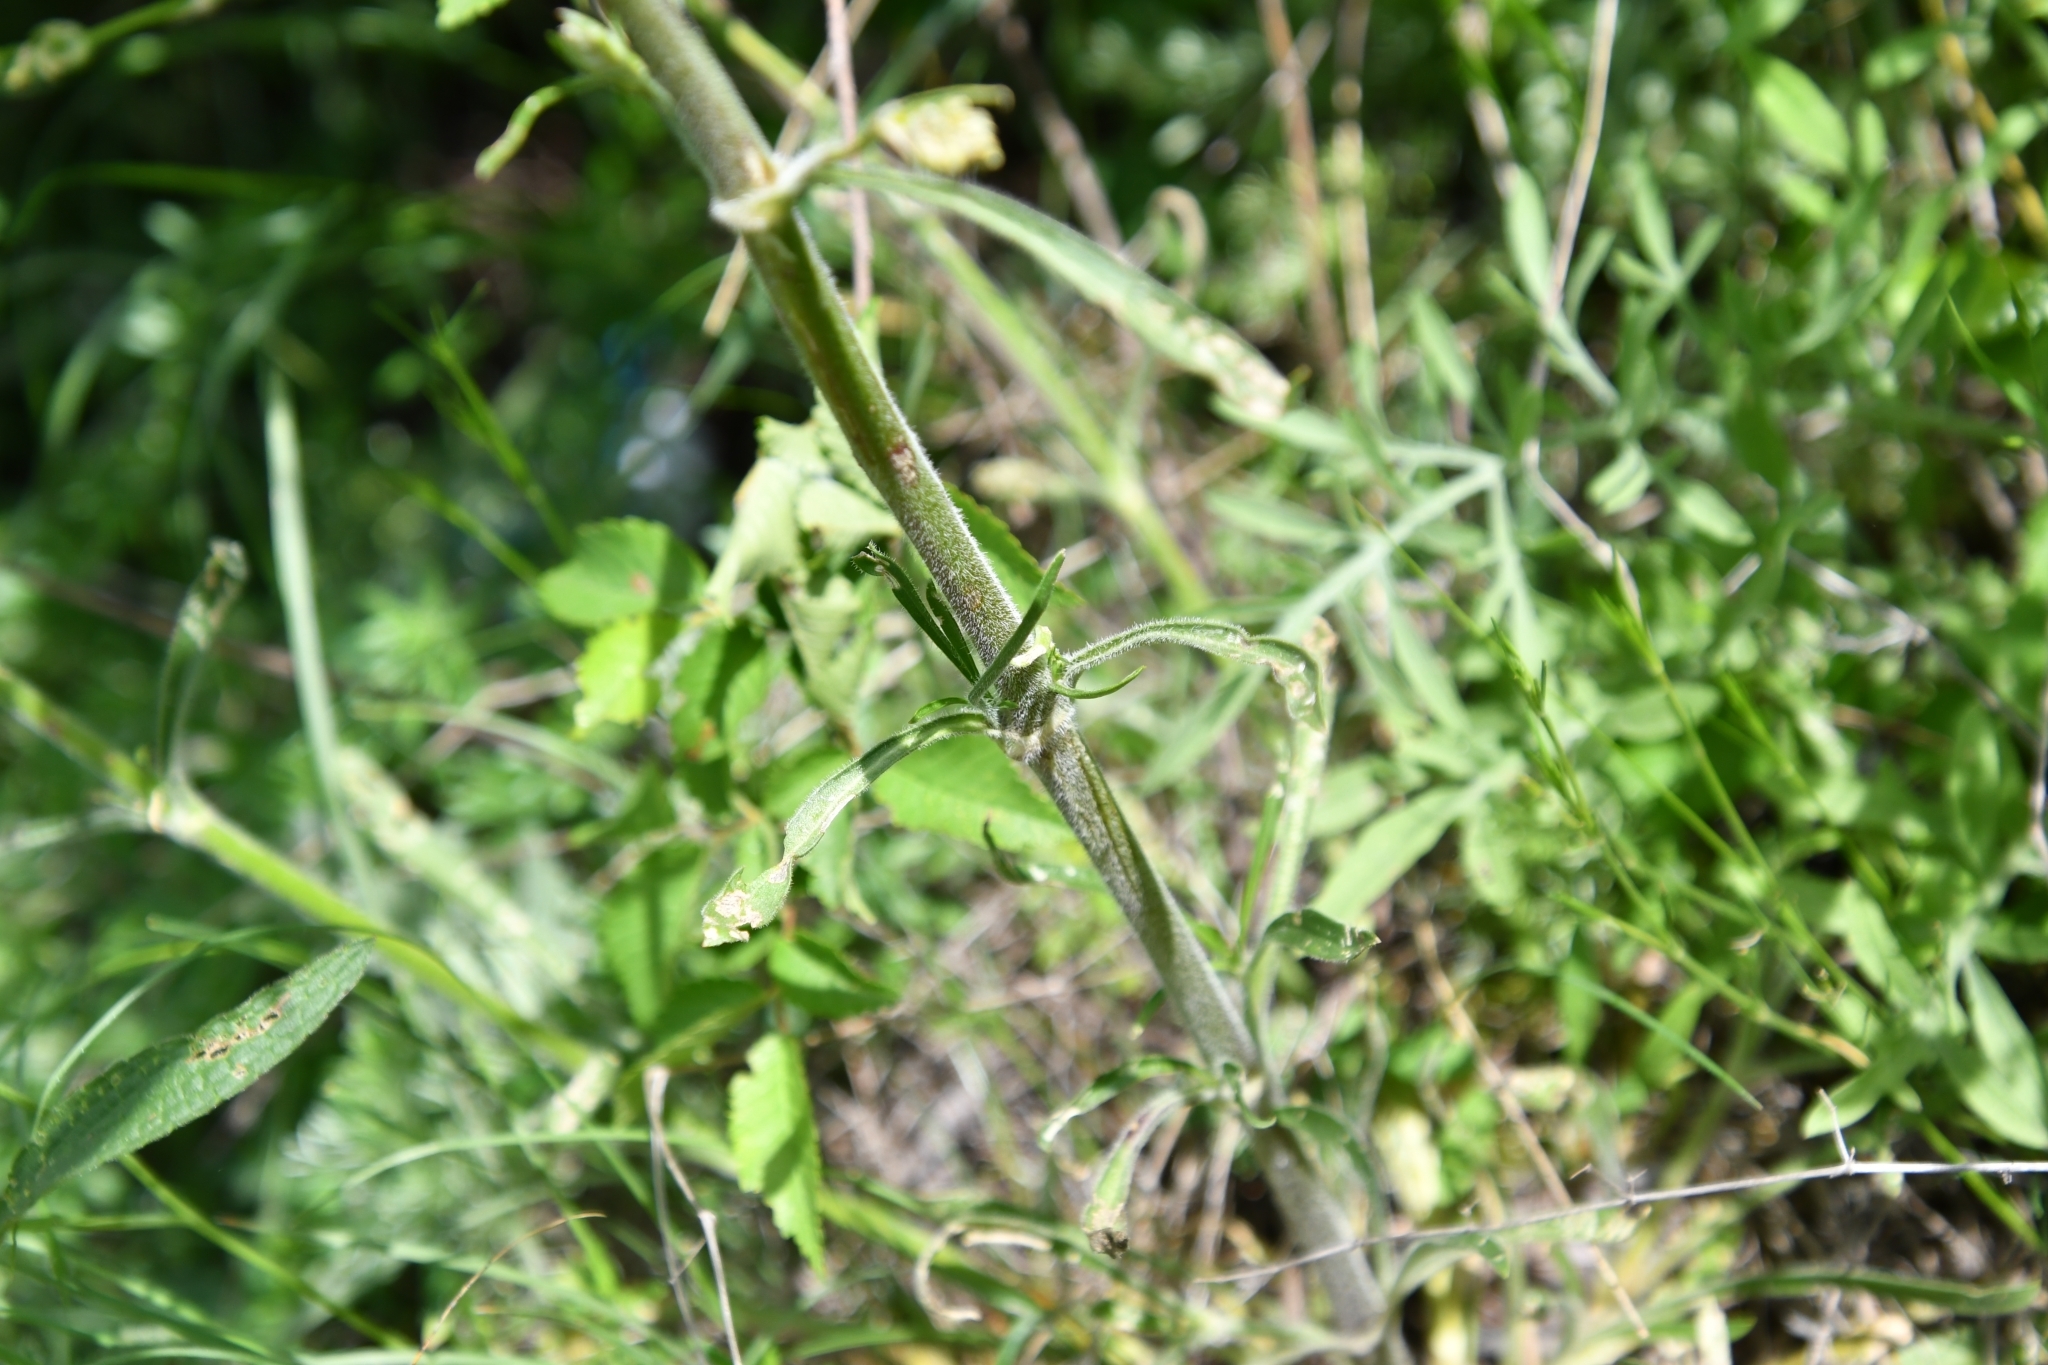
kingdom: Plantae
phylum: Tracheophyta
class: Magnoliopsida
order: Caryophyllales
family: Caryophyllaceae
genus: Silene
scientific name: Silene borysthenica
